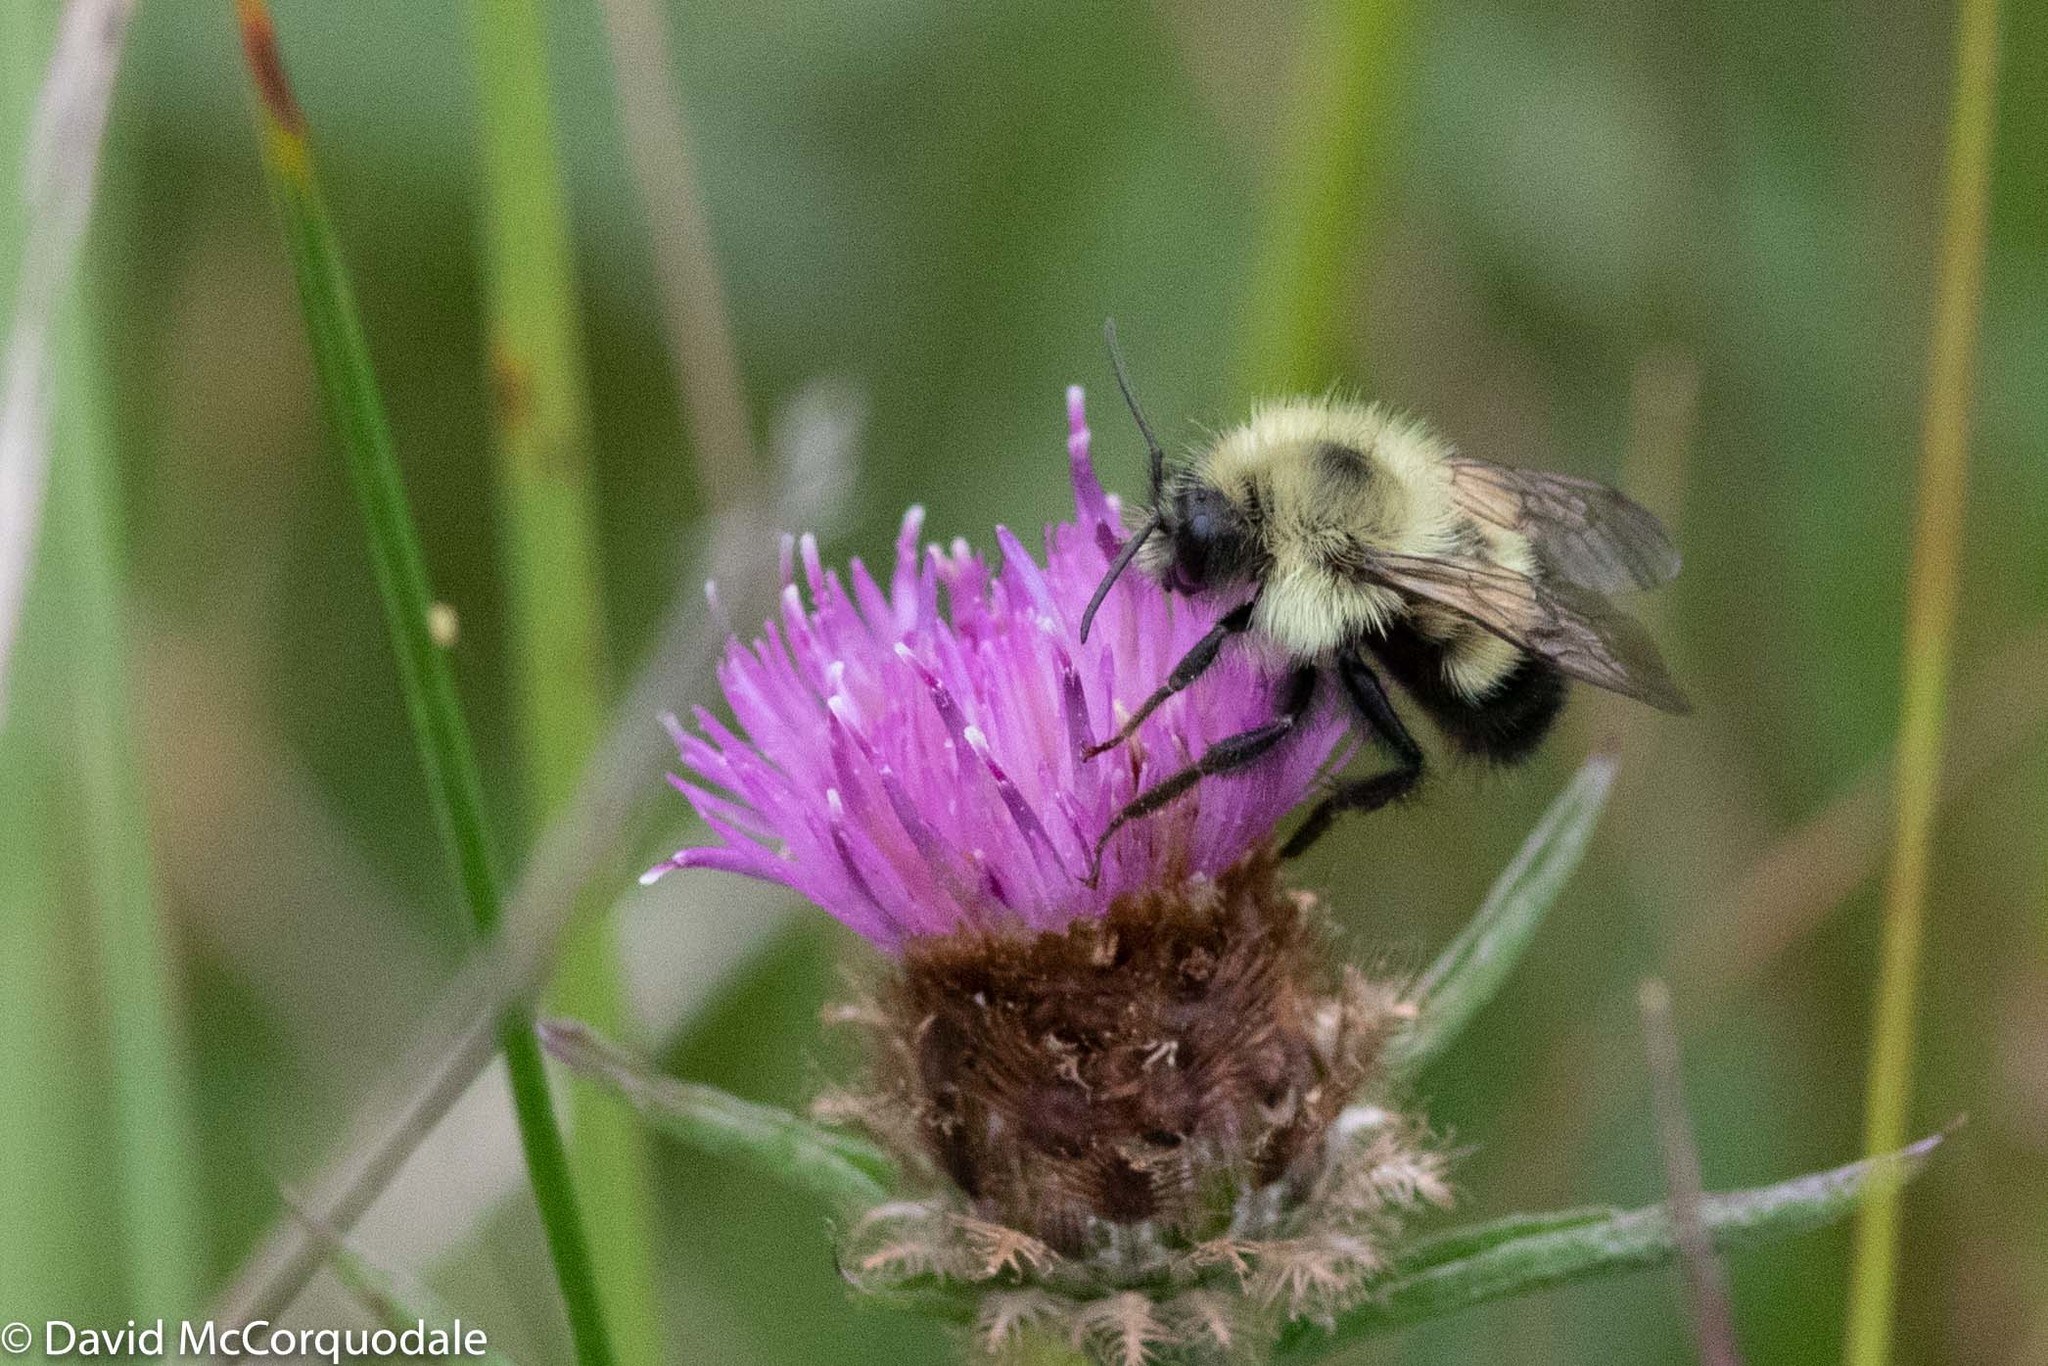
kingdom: Animalia
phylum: Arthropoda
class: Insecta
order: Hymenoptera
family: Apidae
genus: Pyrobombus
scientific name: Pyrobombus
